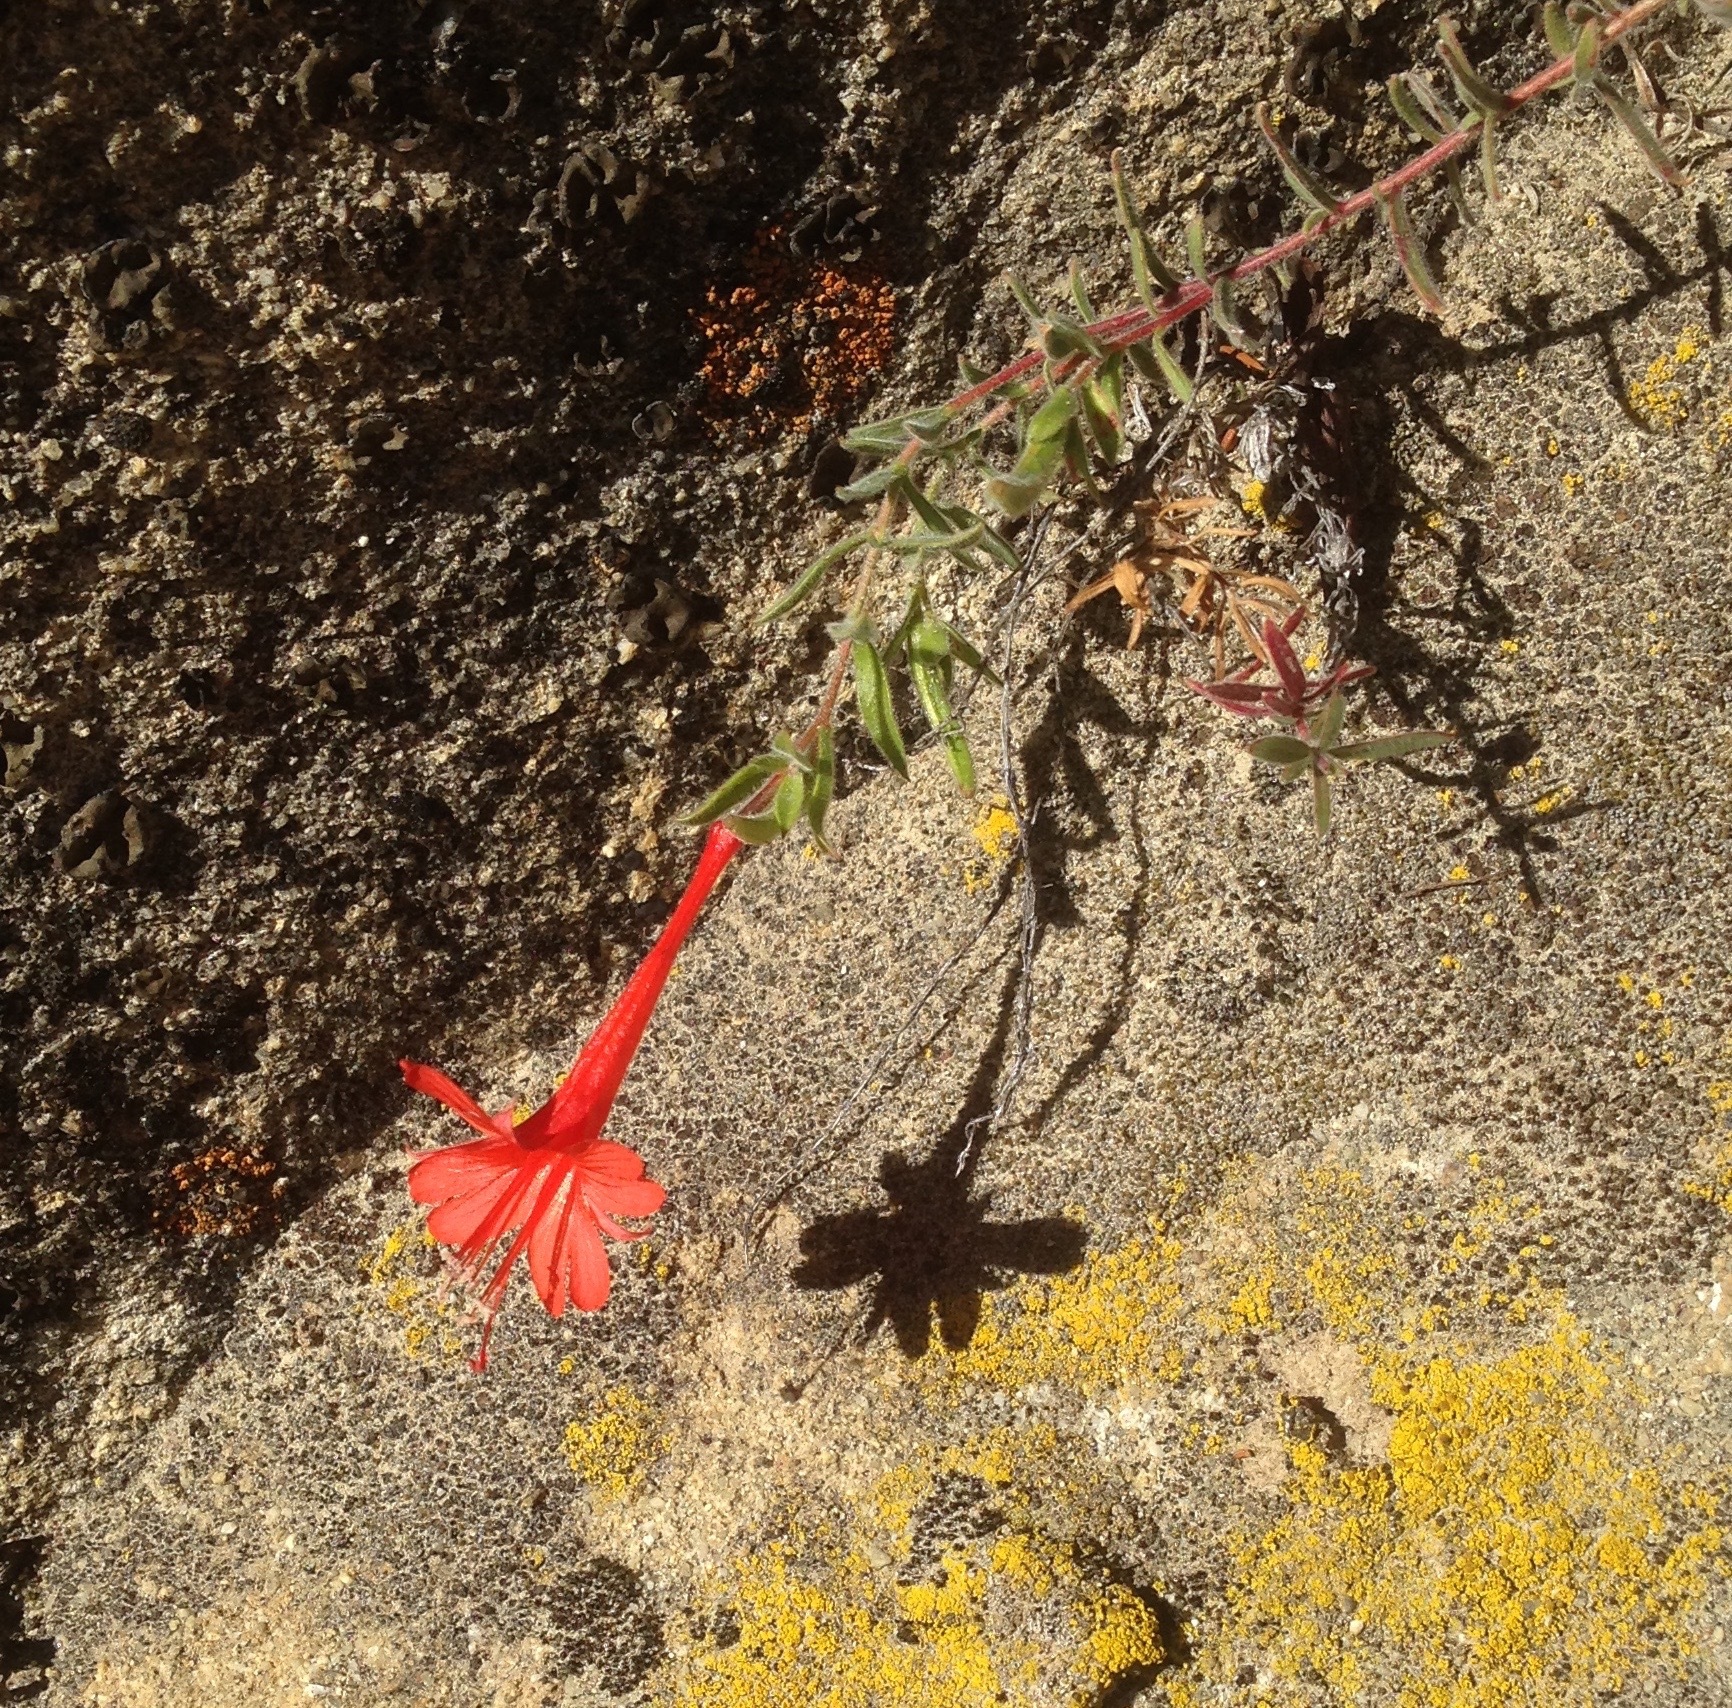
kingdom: Plantae
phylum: Tracheophyta
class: Magnoliopsida
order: Myrtales
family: Onagraceae
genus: Epilobium
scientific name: Epilobium canum
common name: California-fuchsia
